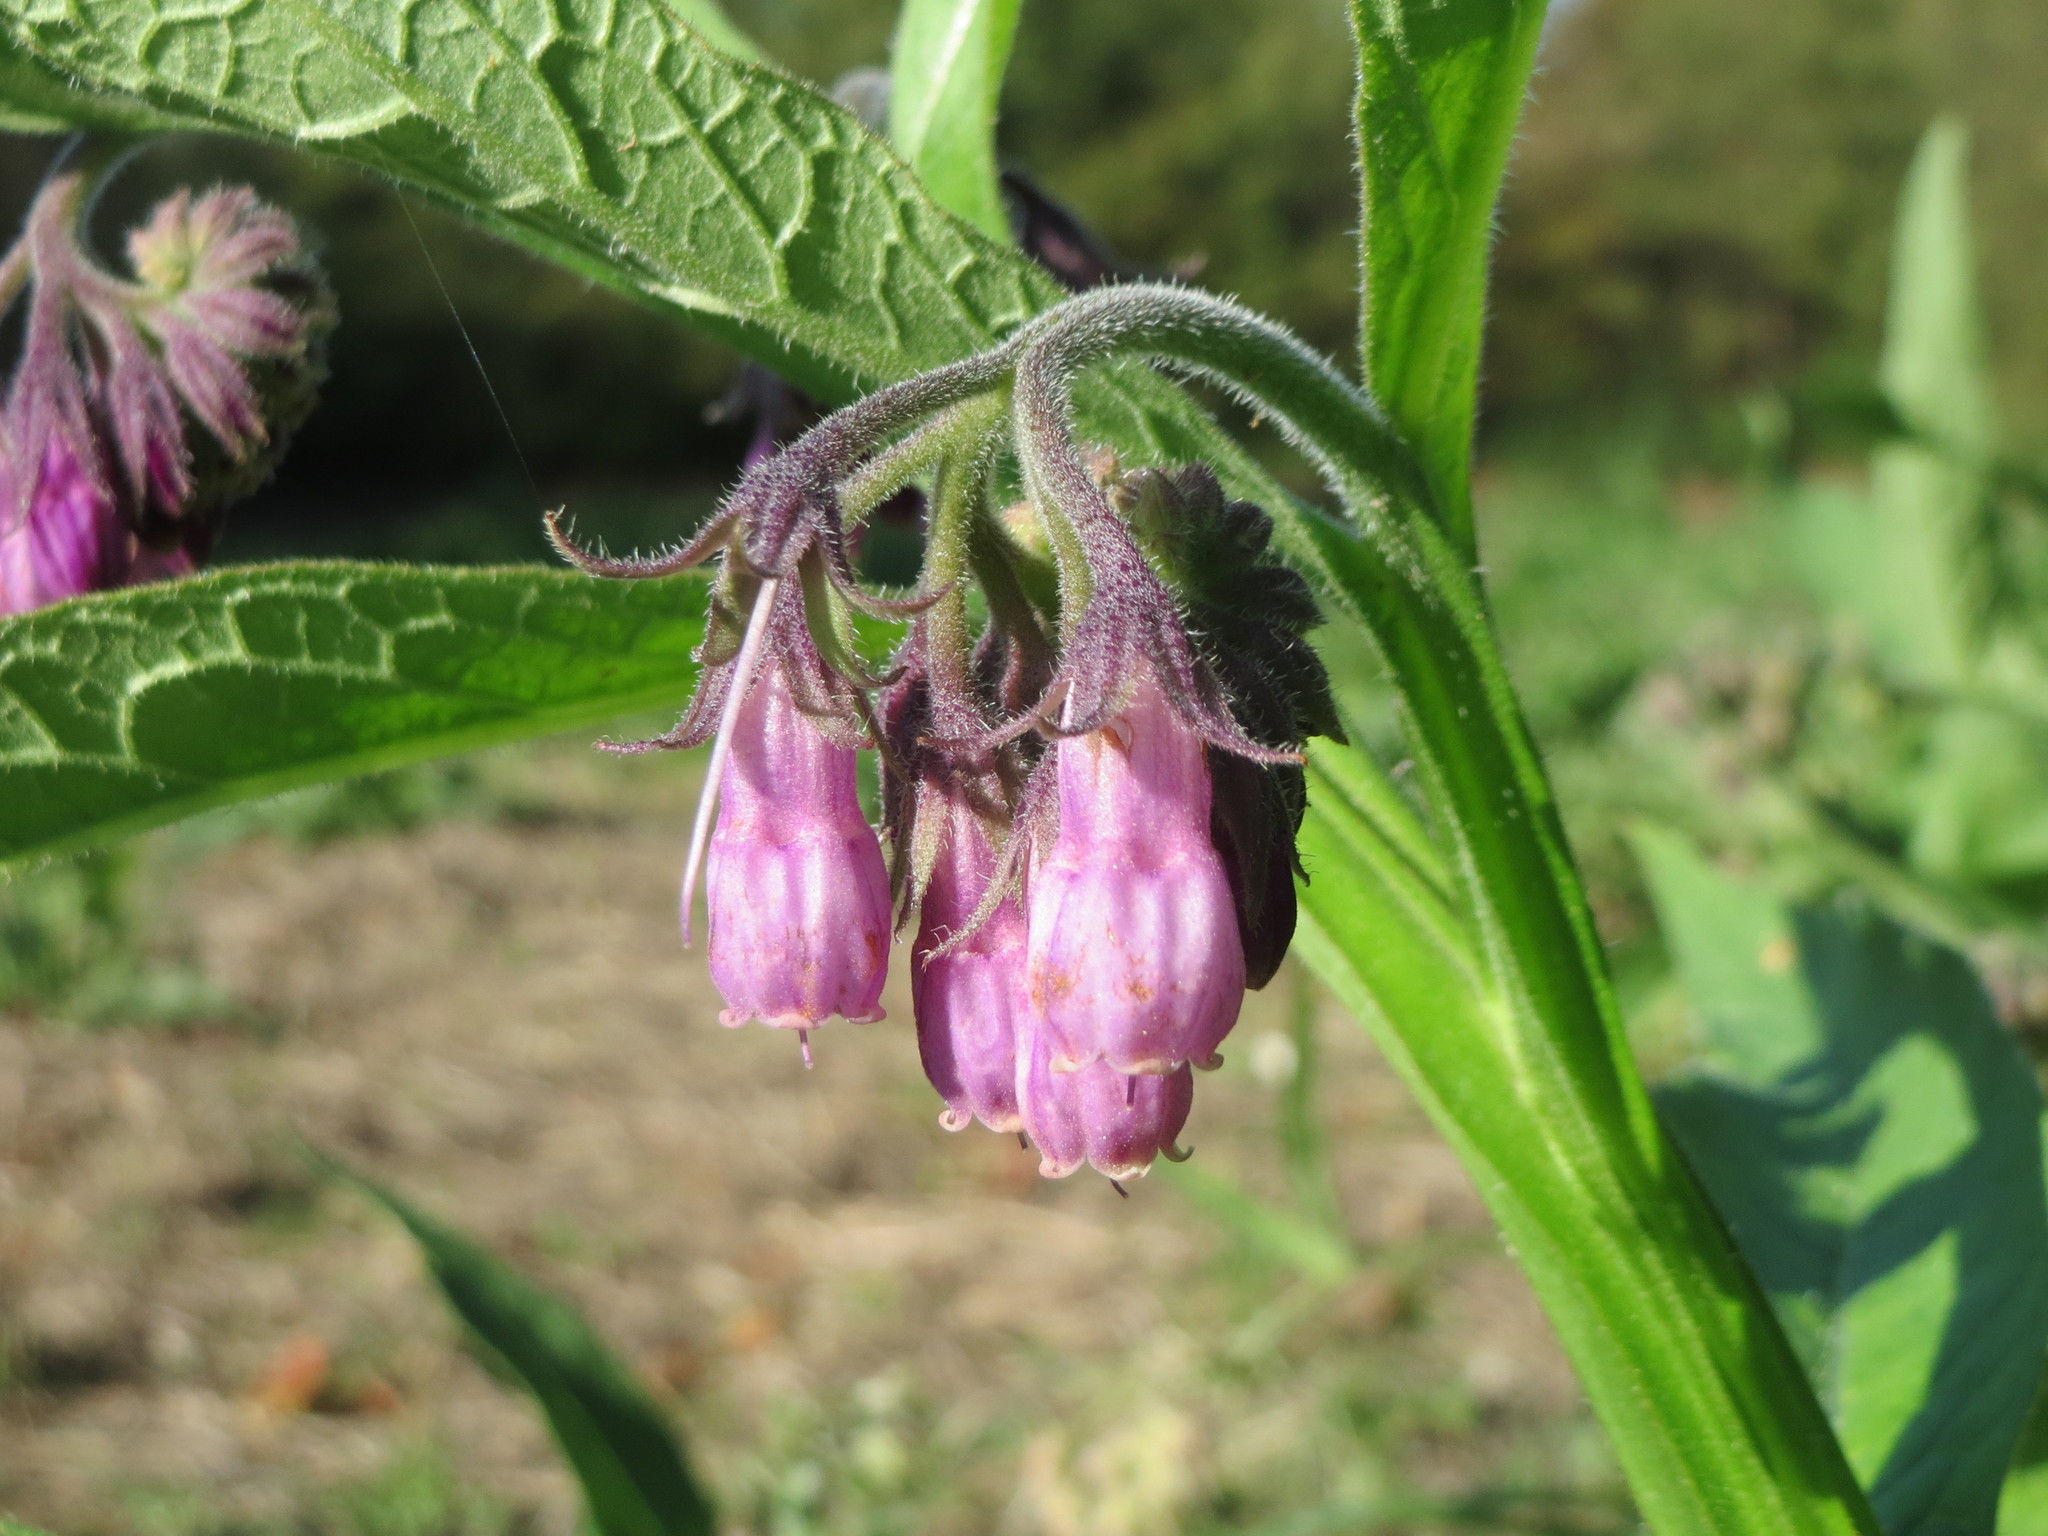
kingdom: Plantae
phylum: Tracheophyta
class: Magnoliopsida
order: Boraginales
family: Boraginaceae
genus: Symphytum
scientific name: Symphytum officinale
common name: Common comfrey
